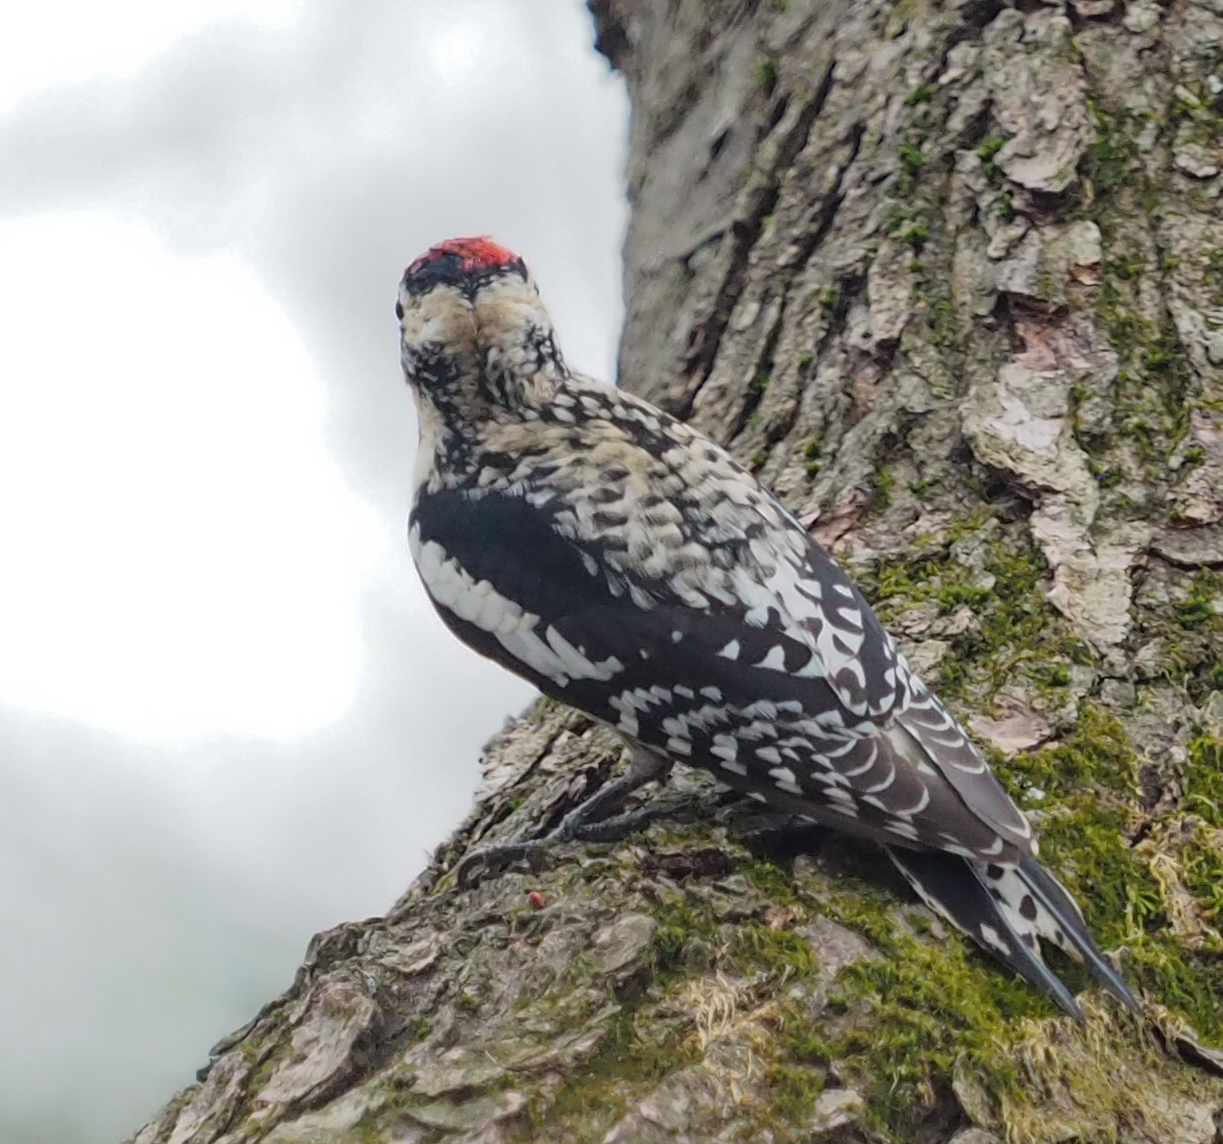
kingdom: Animalia
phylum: Chordata
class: Aves
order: Piciformes
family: Picidae
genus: Sphyrapicus
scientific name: Sphyrapicus varius
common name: Yellow-bellied sapsucker
